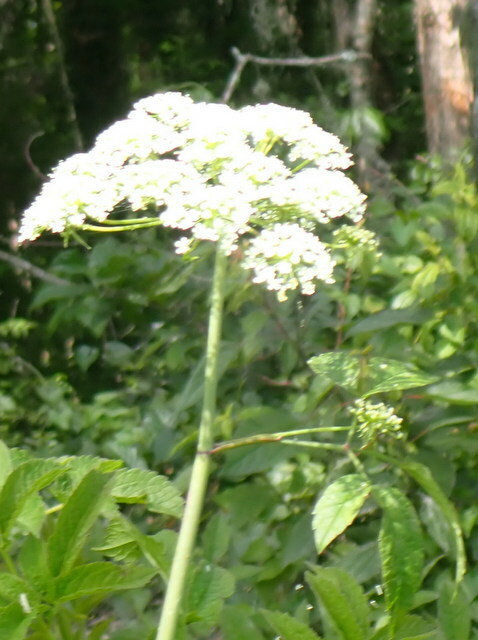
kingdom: Plantae
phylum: Tracheophyta
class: Magnoliopsida
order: Apiales
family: Apiaceae
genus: Cicuta
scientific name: Cicuta maculata
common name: Spotted cowbane
